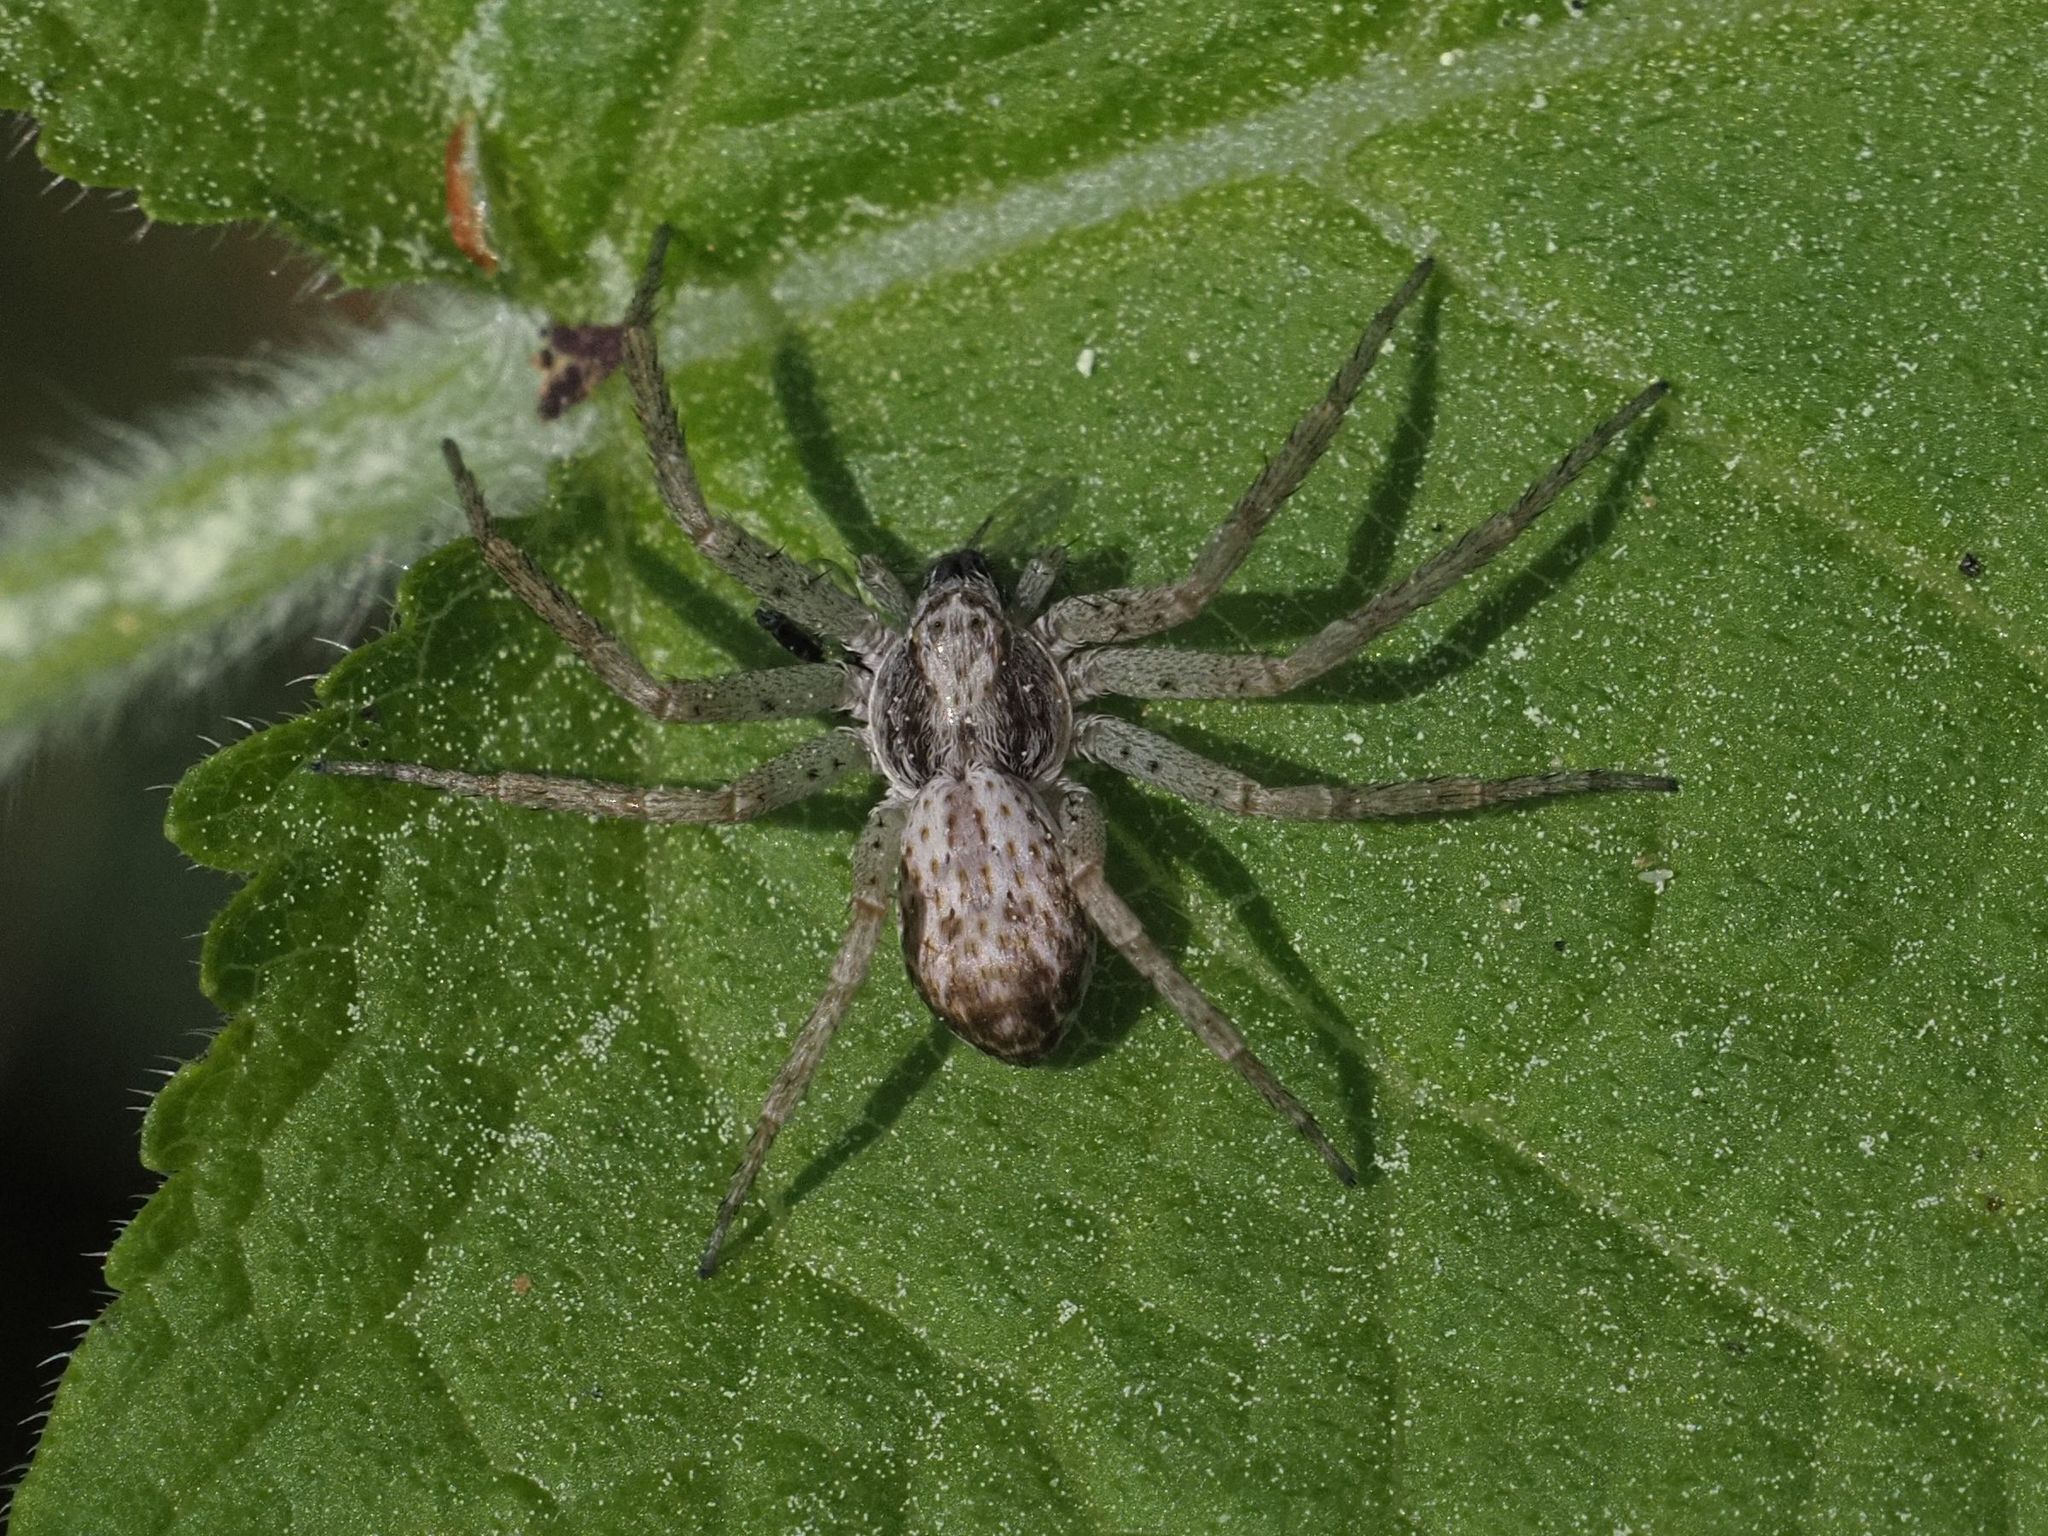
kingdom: Animalia
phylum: Arthropoda
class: Arachnida
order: Araneae
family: Philodromidae
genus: Philodromus
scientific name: Philodromus dispar
